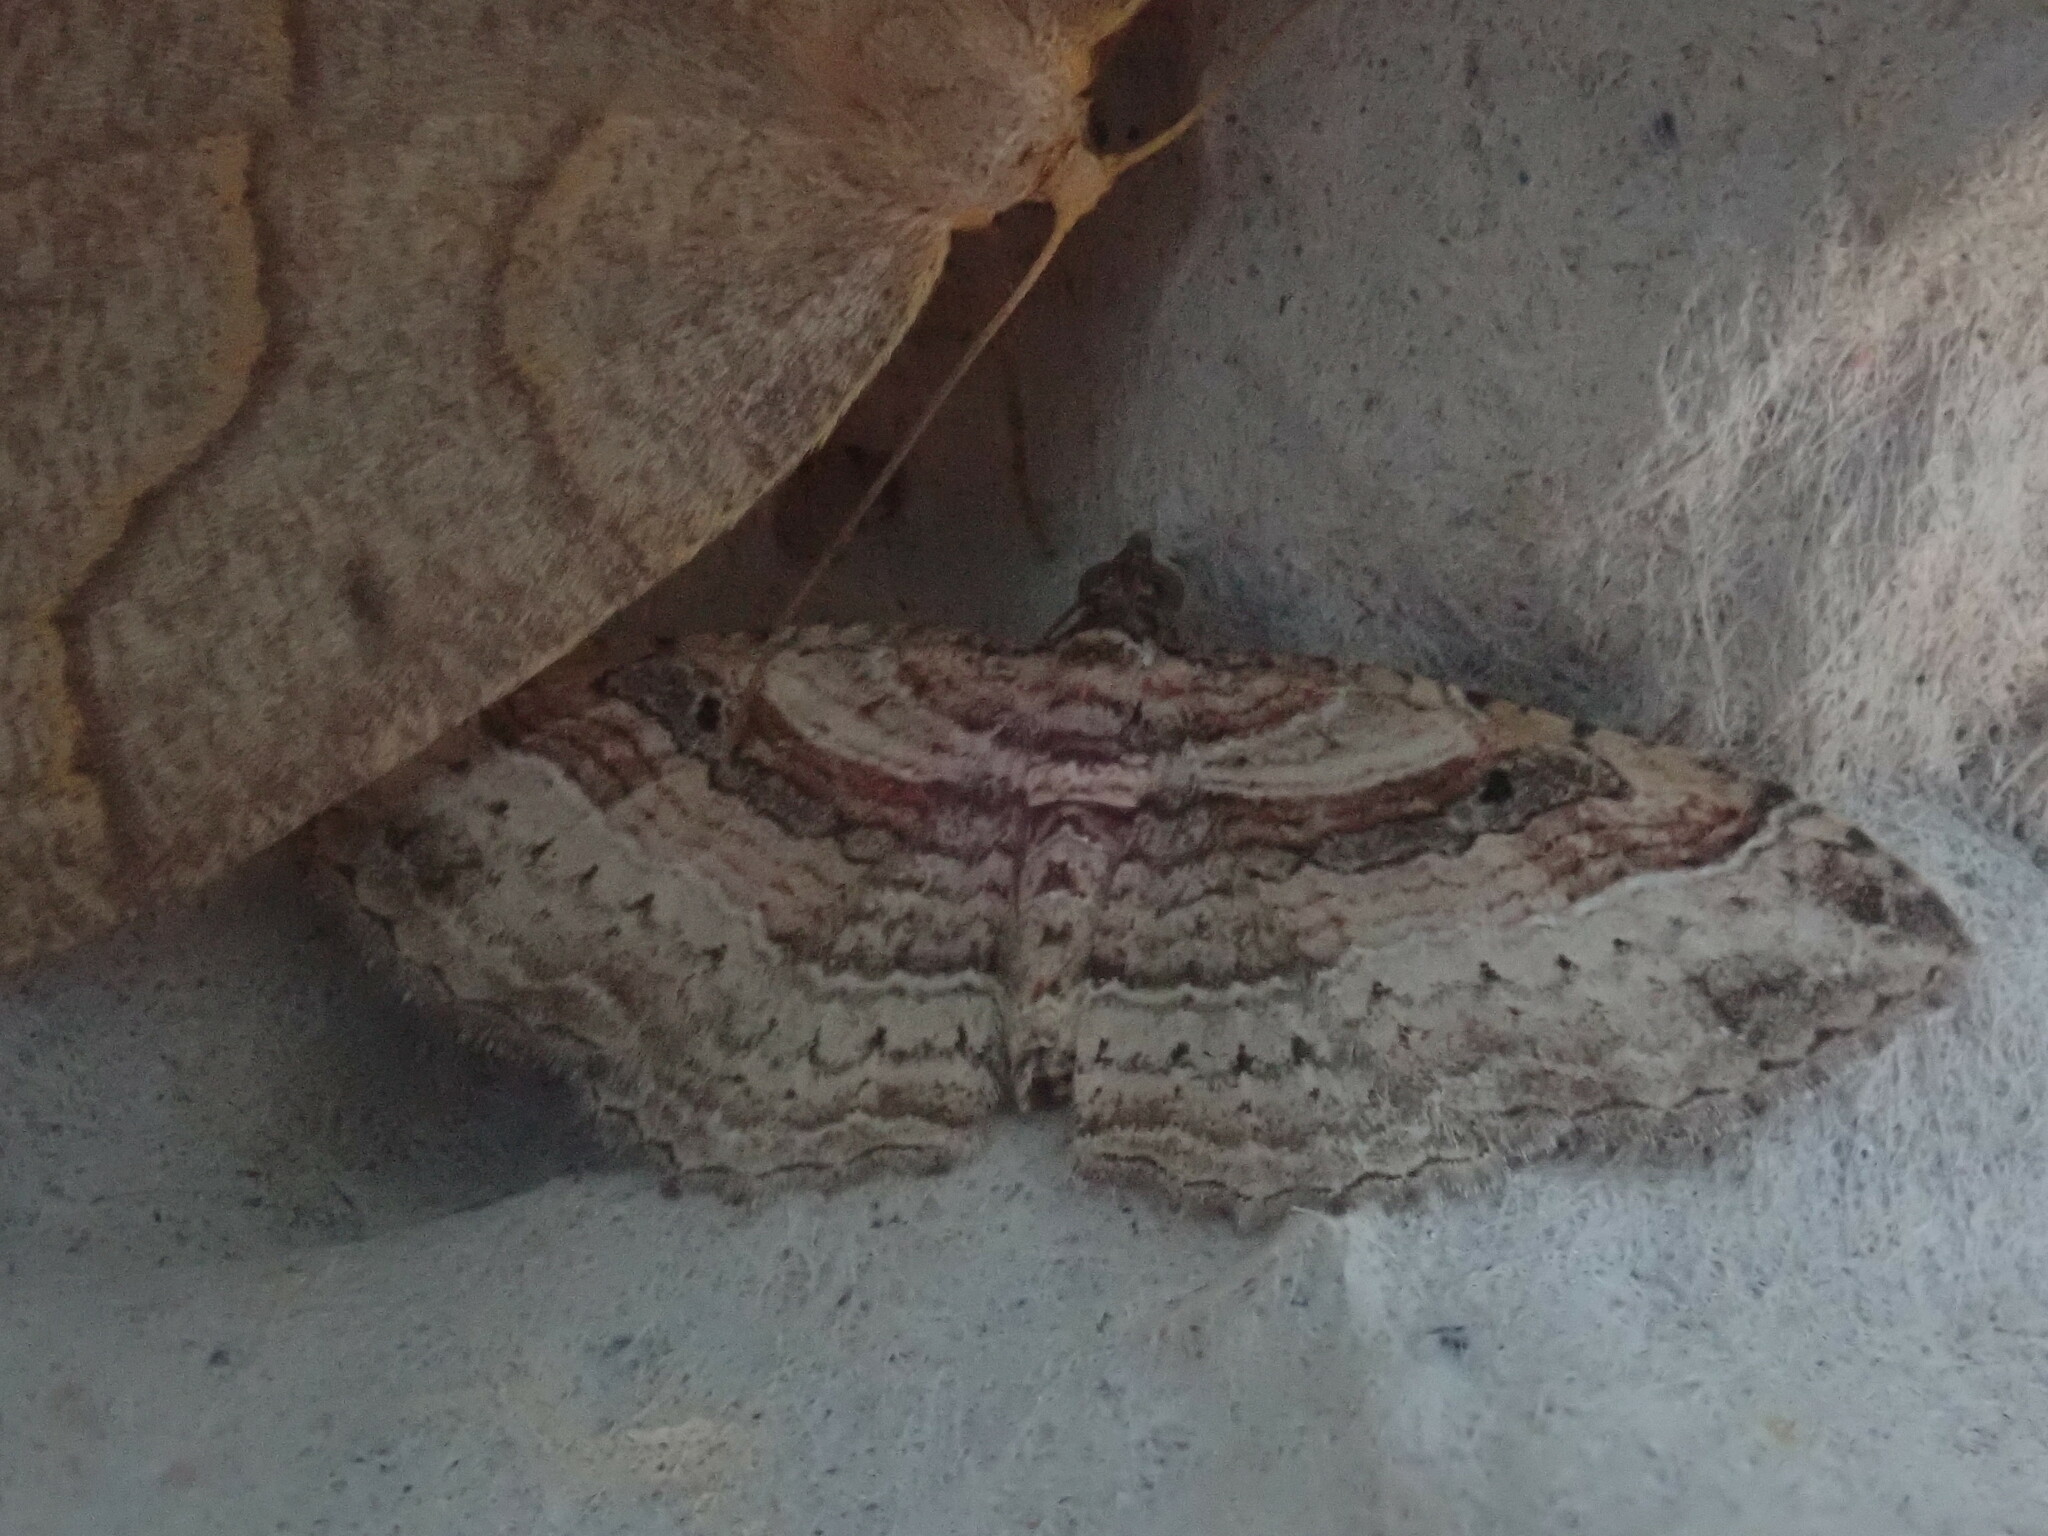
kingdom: Animalia
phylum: Arthropoda
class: Insecta
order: Lepidoptera
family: Geometridae
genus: Costaconvexa
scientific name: Costaconvexa centrostrigaria
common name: Bent-line carpet
